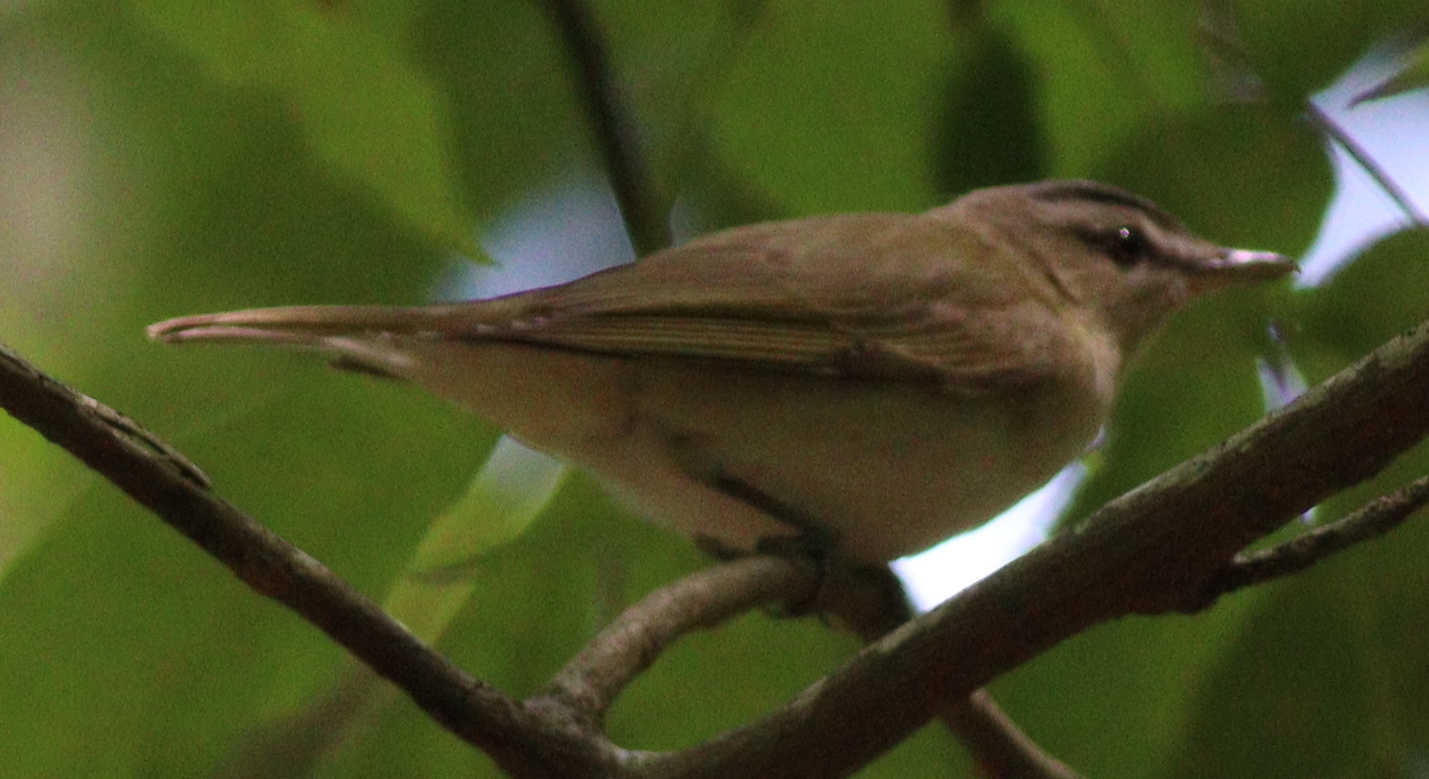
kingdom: Animalia
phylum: Chordata
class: Aves
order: Passeriformes
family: Vireonidae
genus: Vireo
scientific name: Vireo olivaceus
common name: Red-eyed vireo
